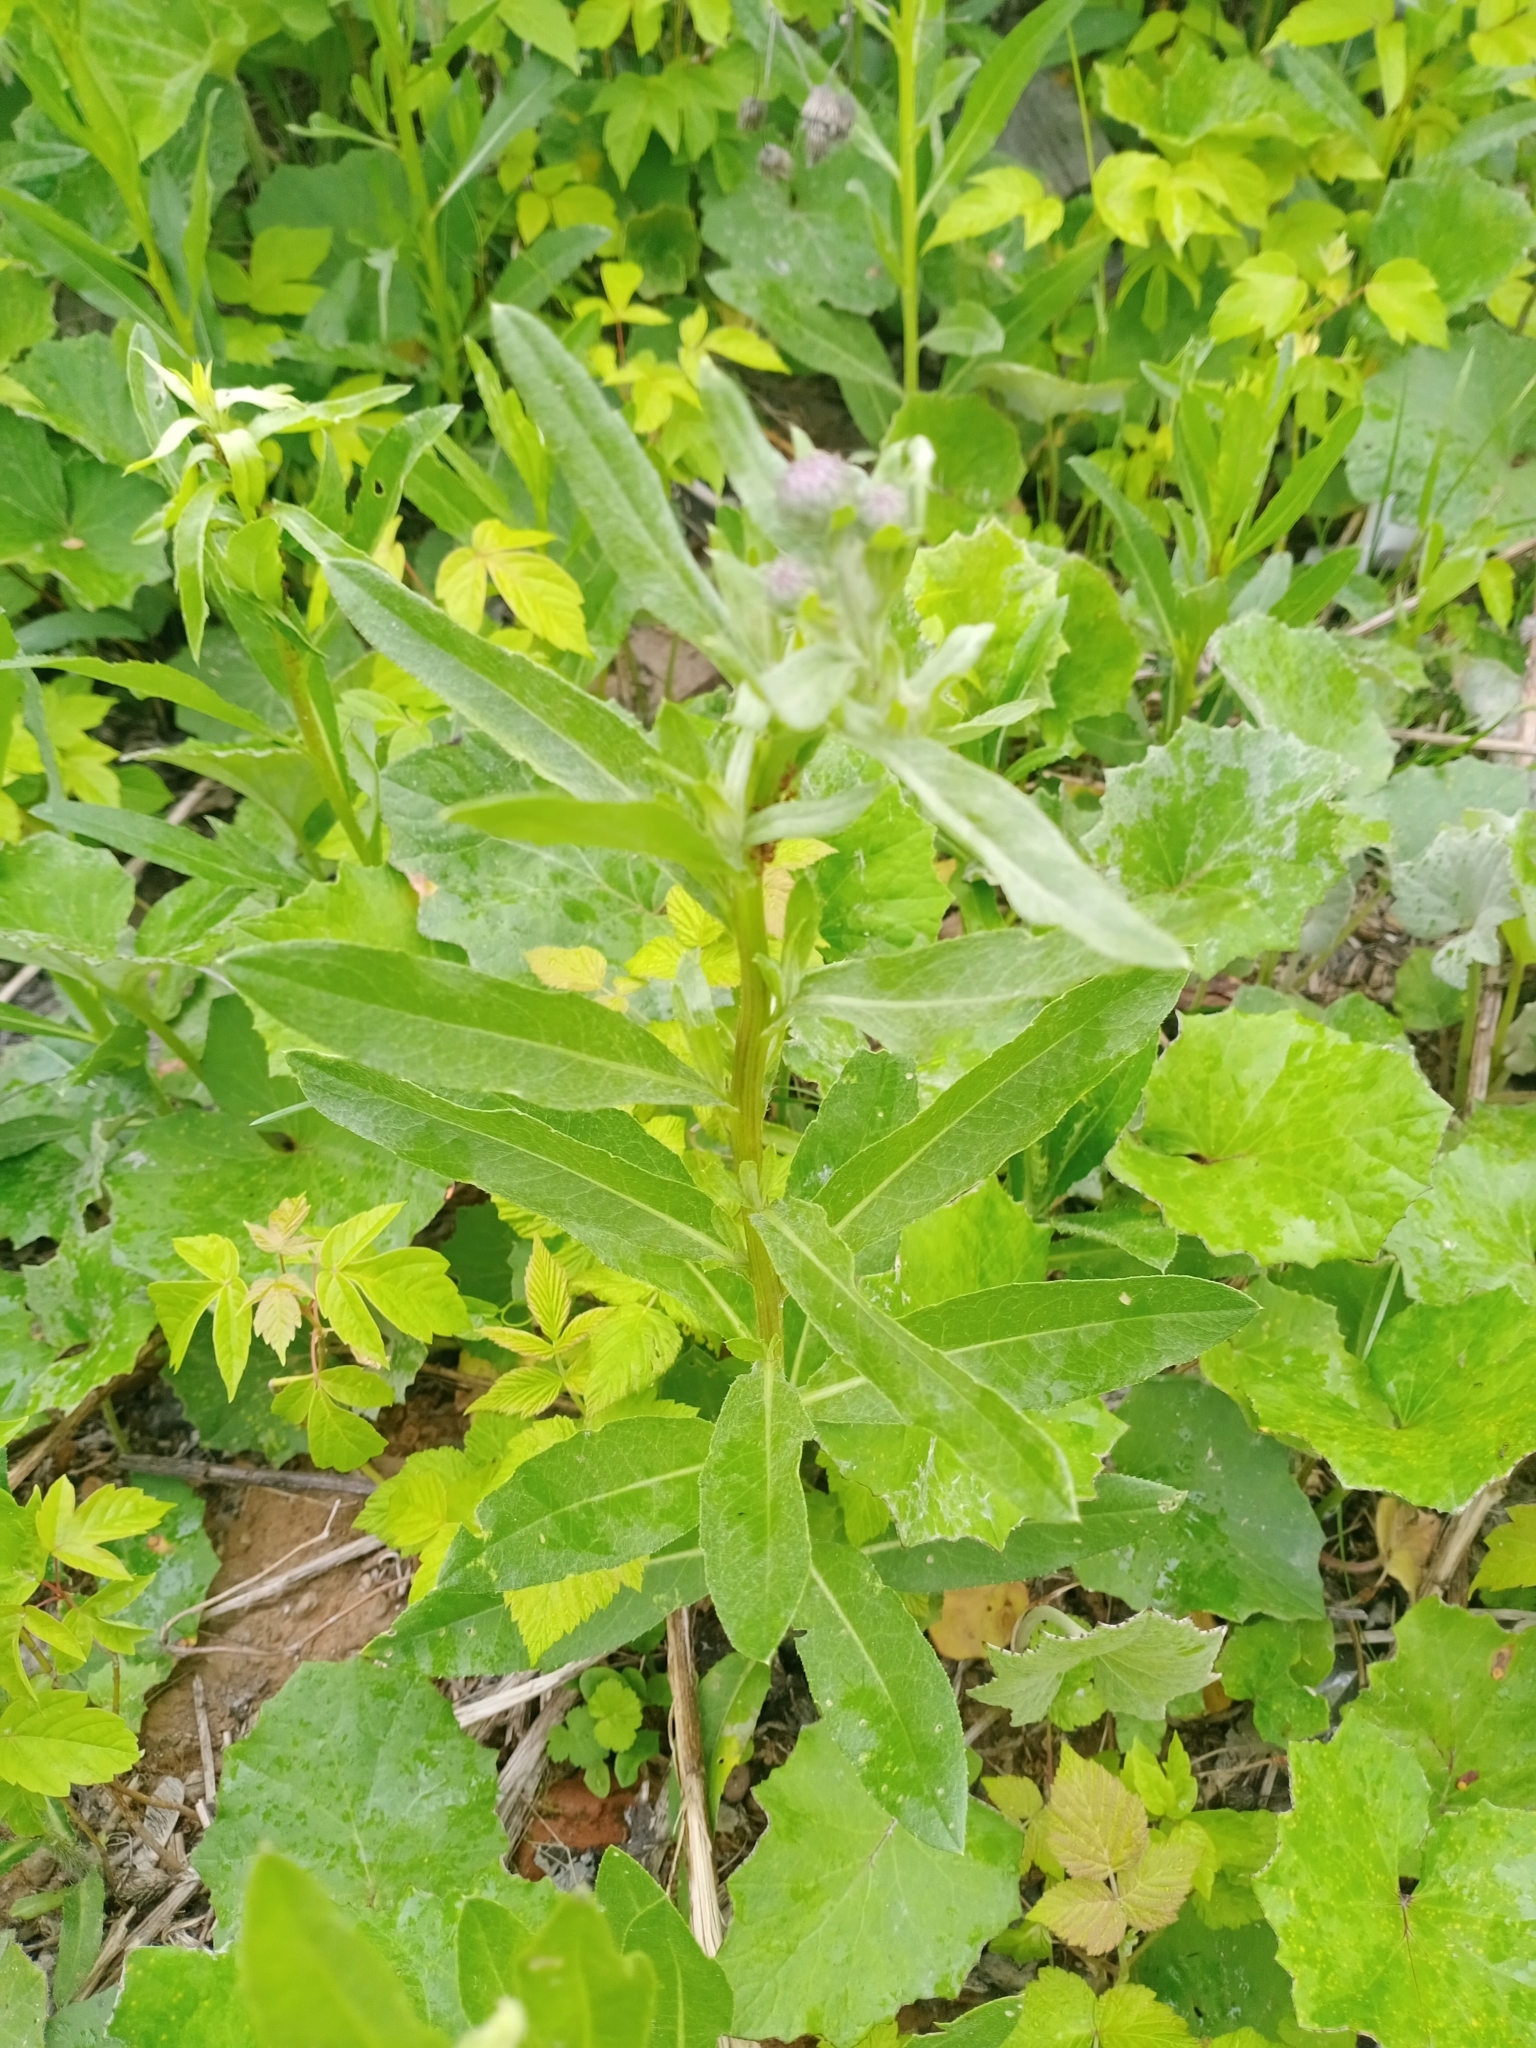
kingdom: Plantae
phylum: Tracheophyta
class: Magnoliopsida
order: Asterales
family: Asteraceae
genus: Cirsium
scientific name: Cirsium arvense
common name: Creeping thistle
